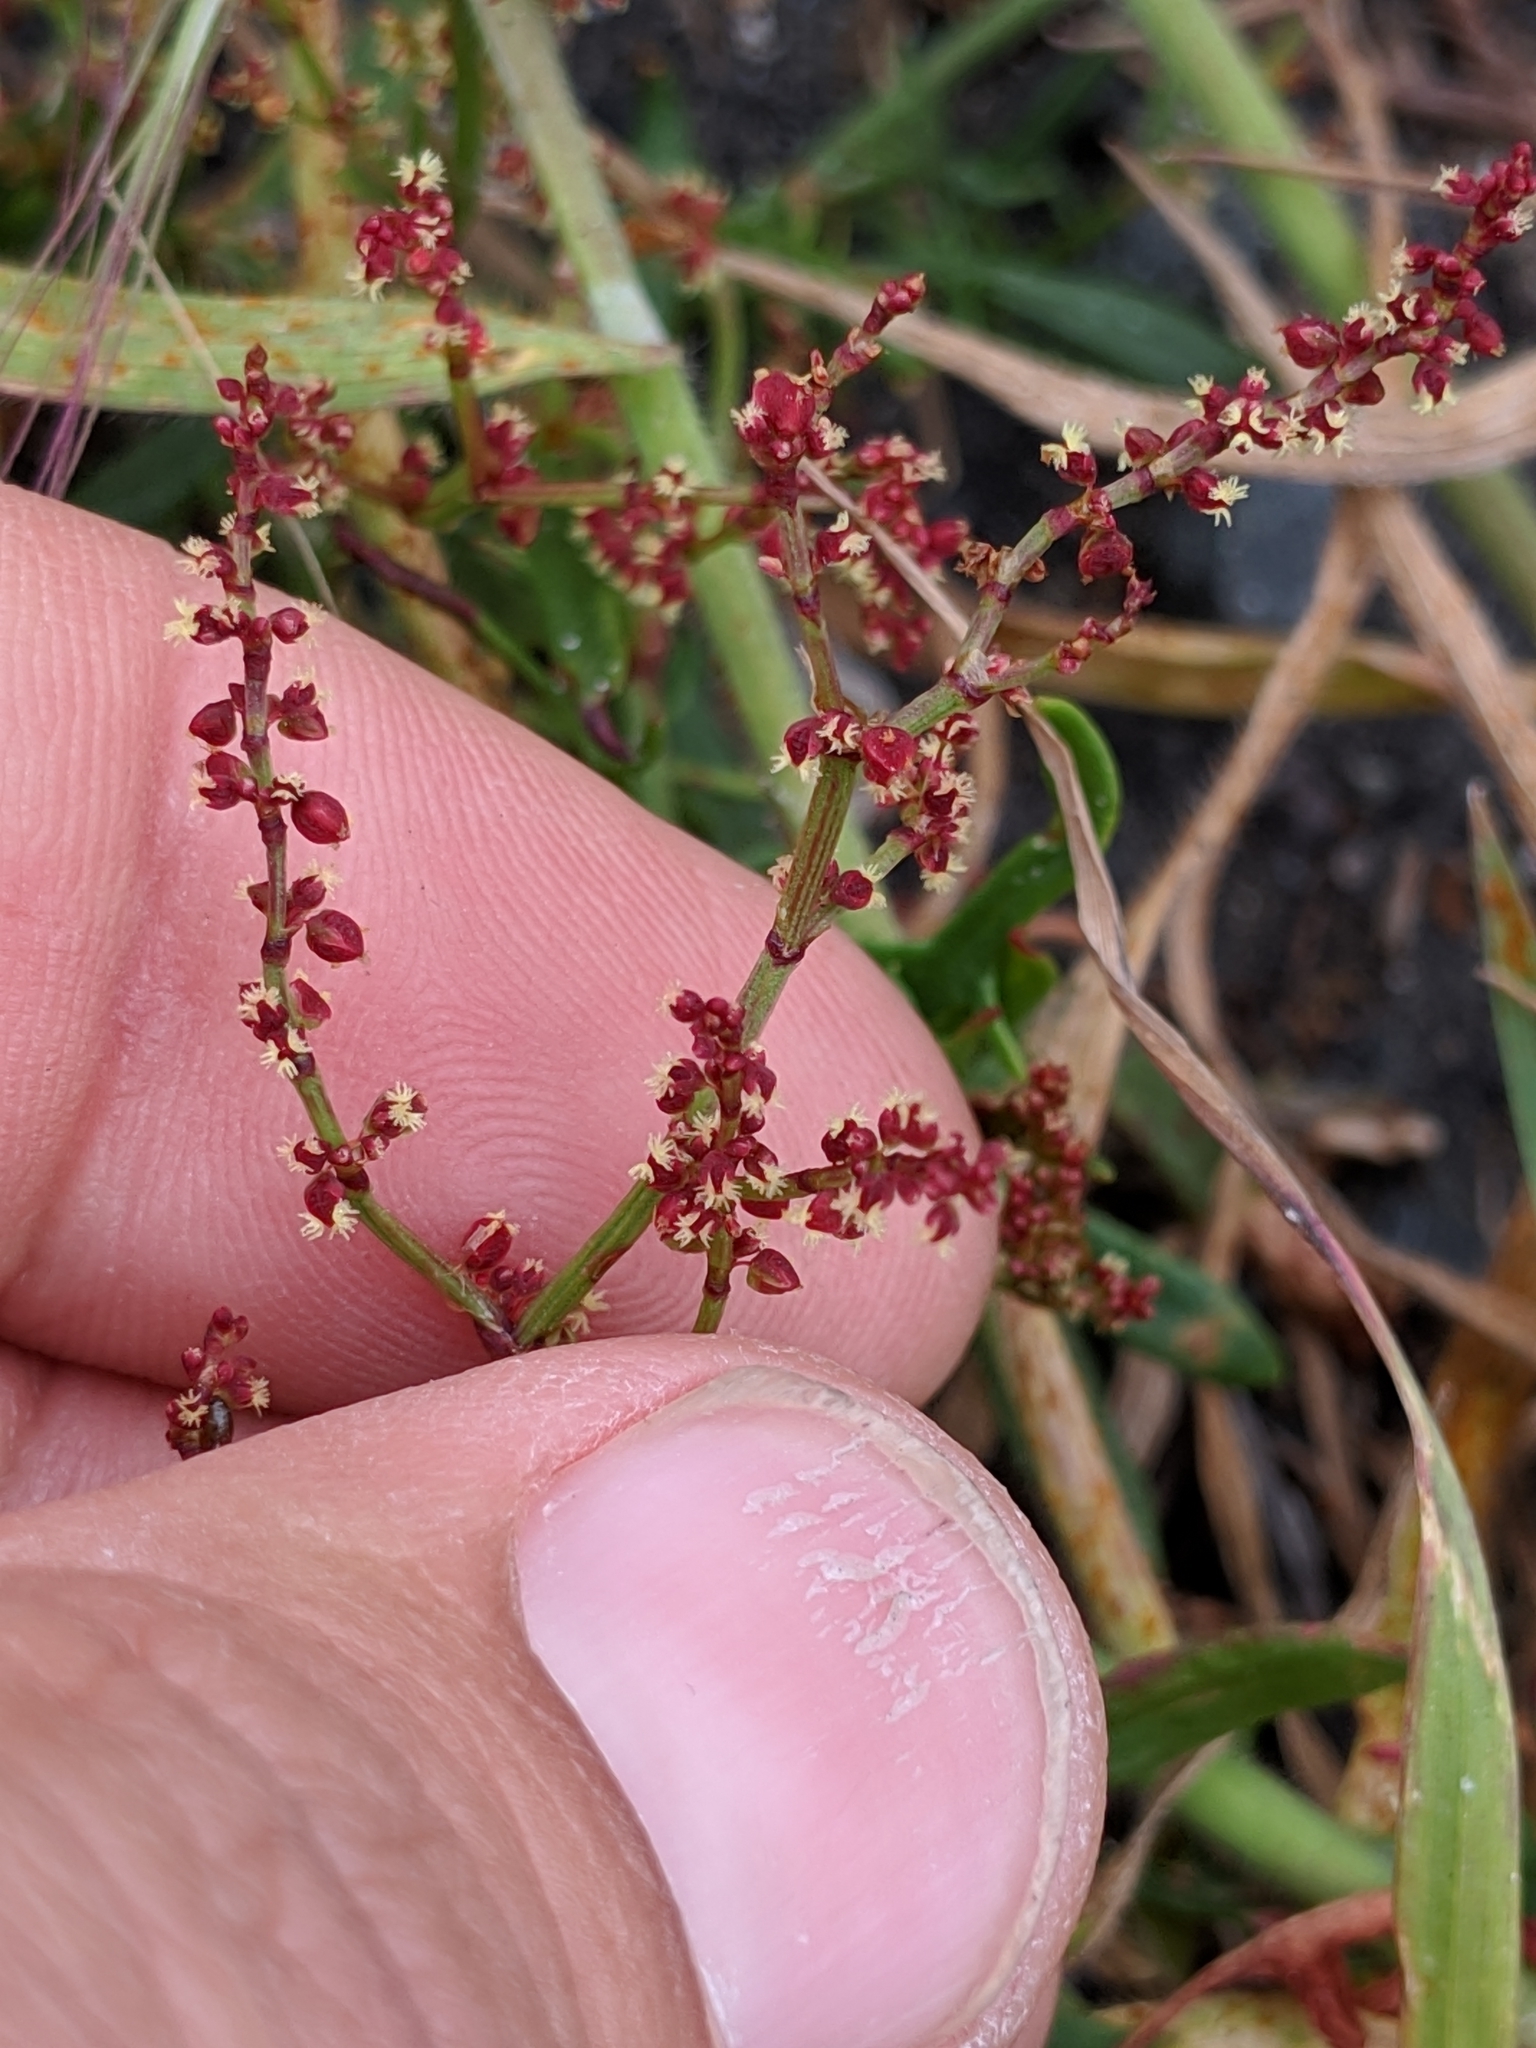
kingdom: Plantae
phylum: Tracheophyta
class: Magnoliopsida
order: Caryophyllales
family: Polygonaceae
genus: Rumex
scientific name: Rumex acetosella
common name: Common sheep sorrel
